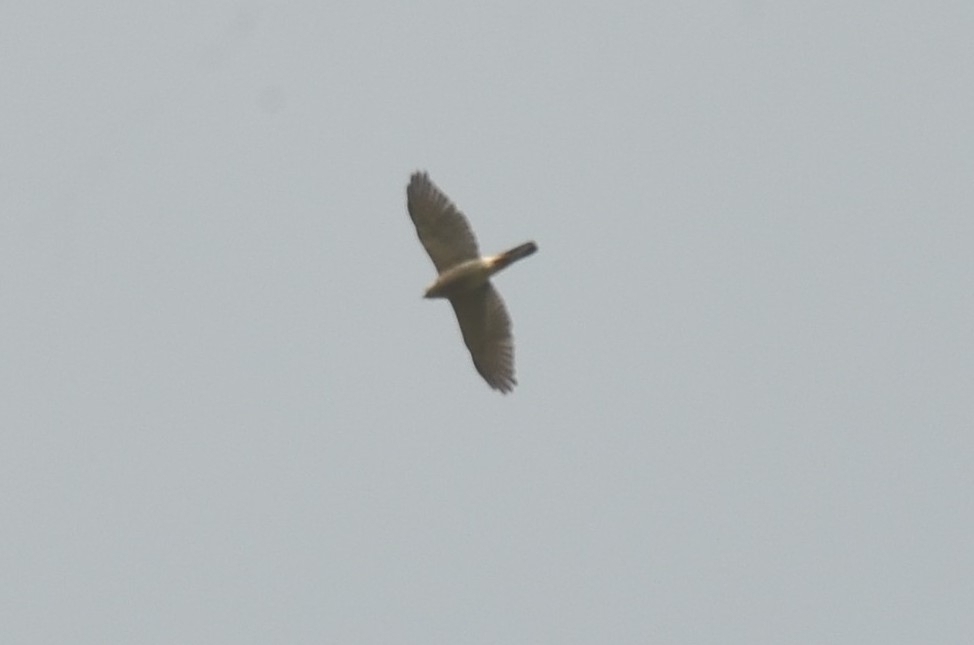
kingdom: Animalia
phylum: Chordata
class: Aves
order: Accipitriformes
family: Accipitridae
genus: Accipiter
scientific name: Accipiter badius
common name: Shikra
